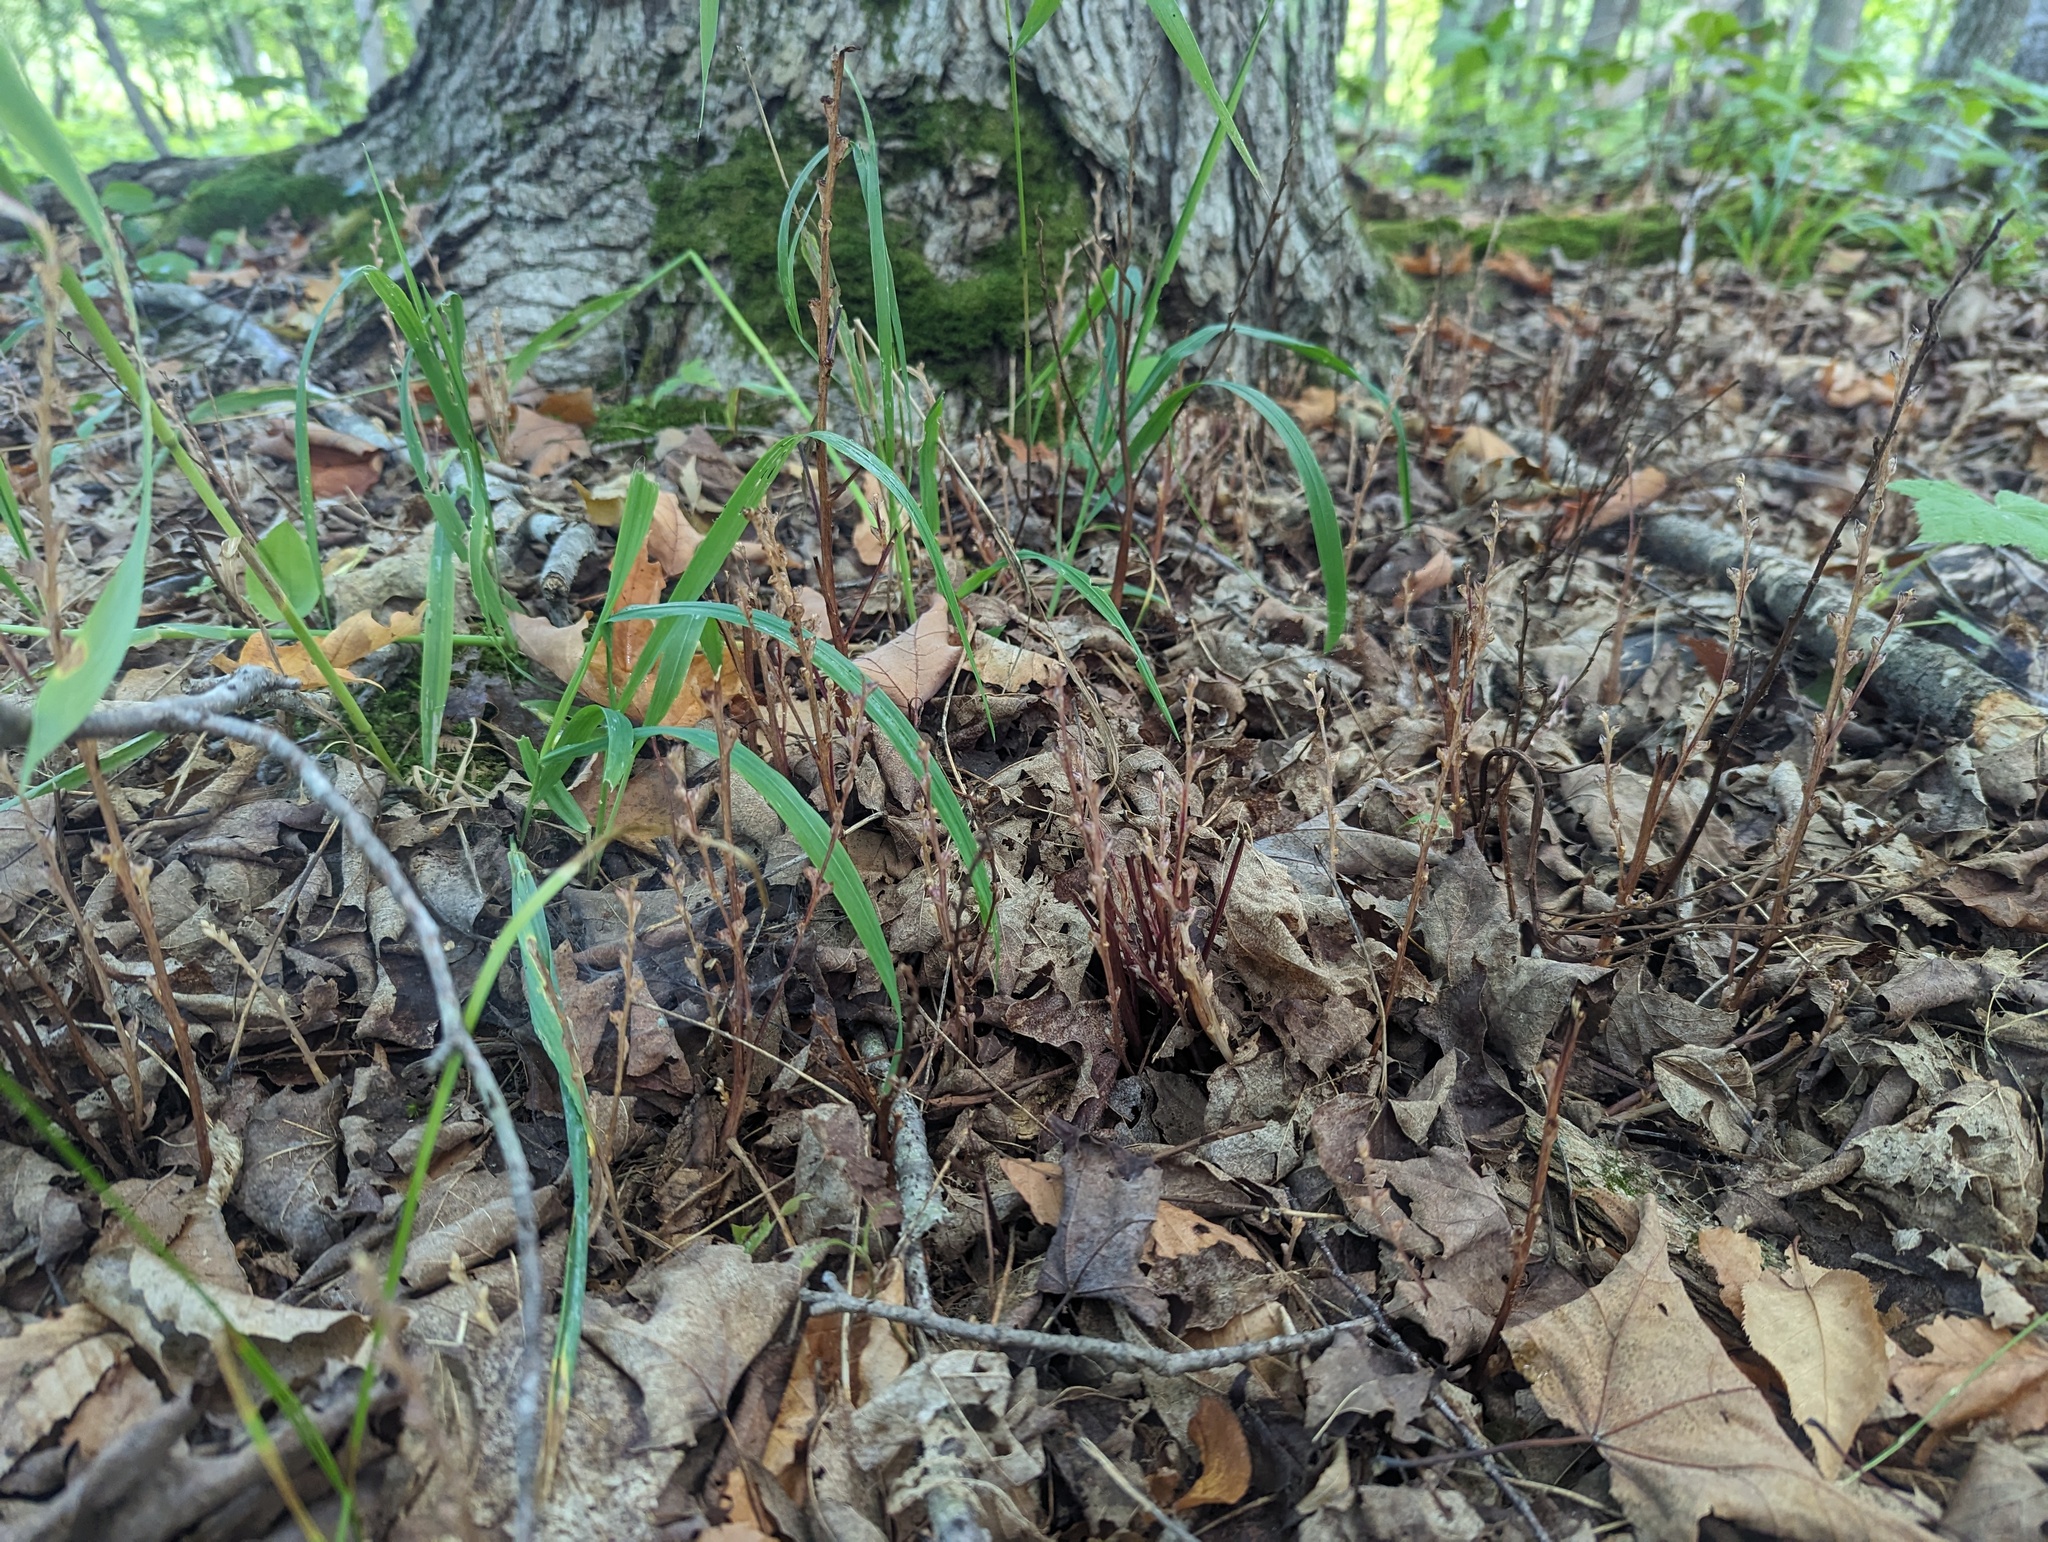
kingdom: Plantae
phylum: Tracheophyta
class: Magnoliopsida
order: Lamiales
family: Orobanchaceae
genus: Epifagus
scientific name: Epifagus virginiana
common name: Beechdrops
